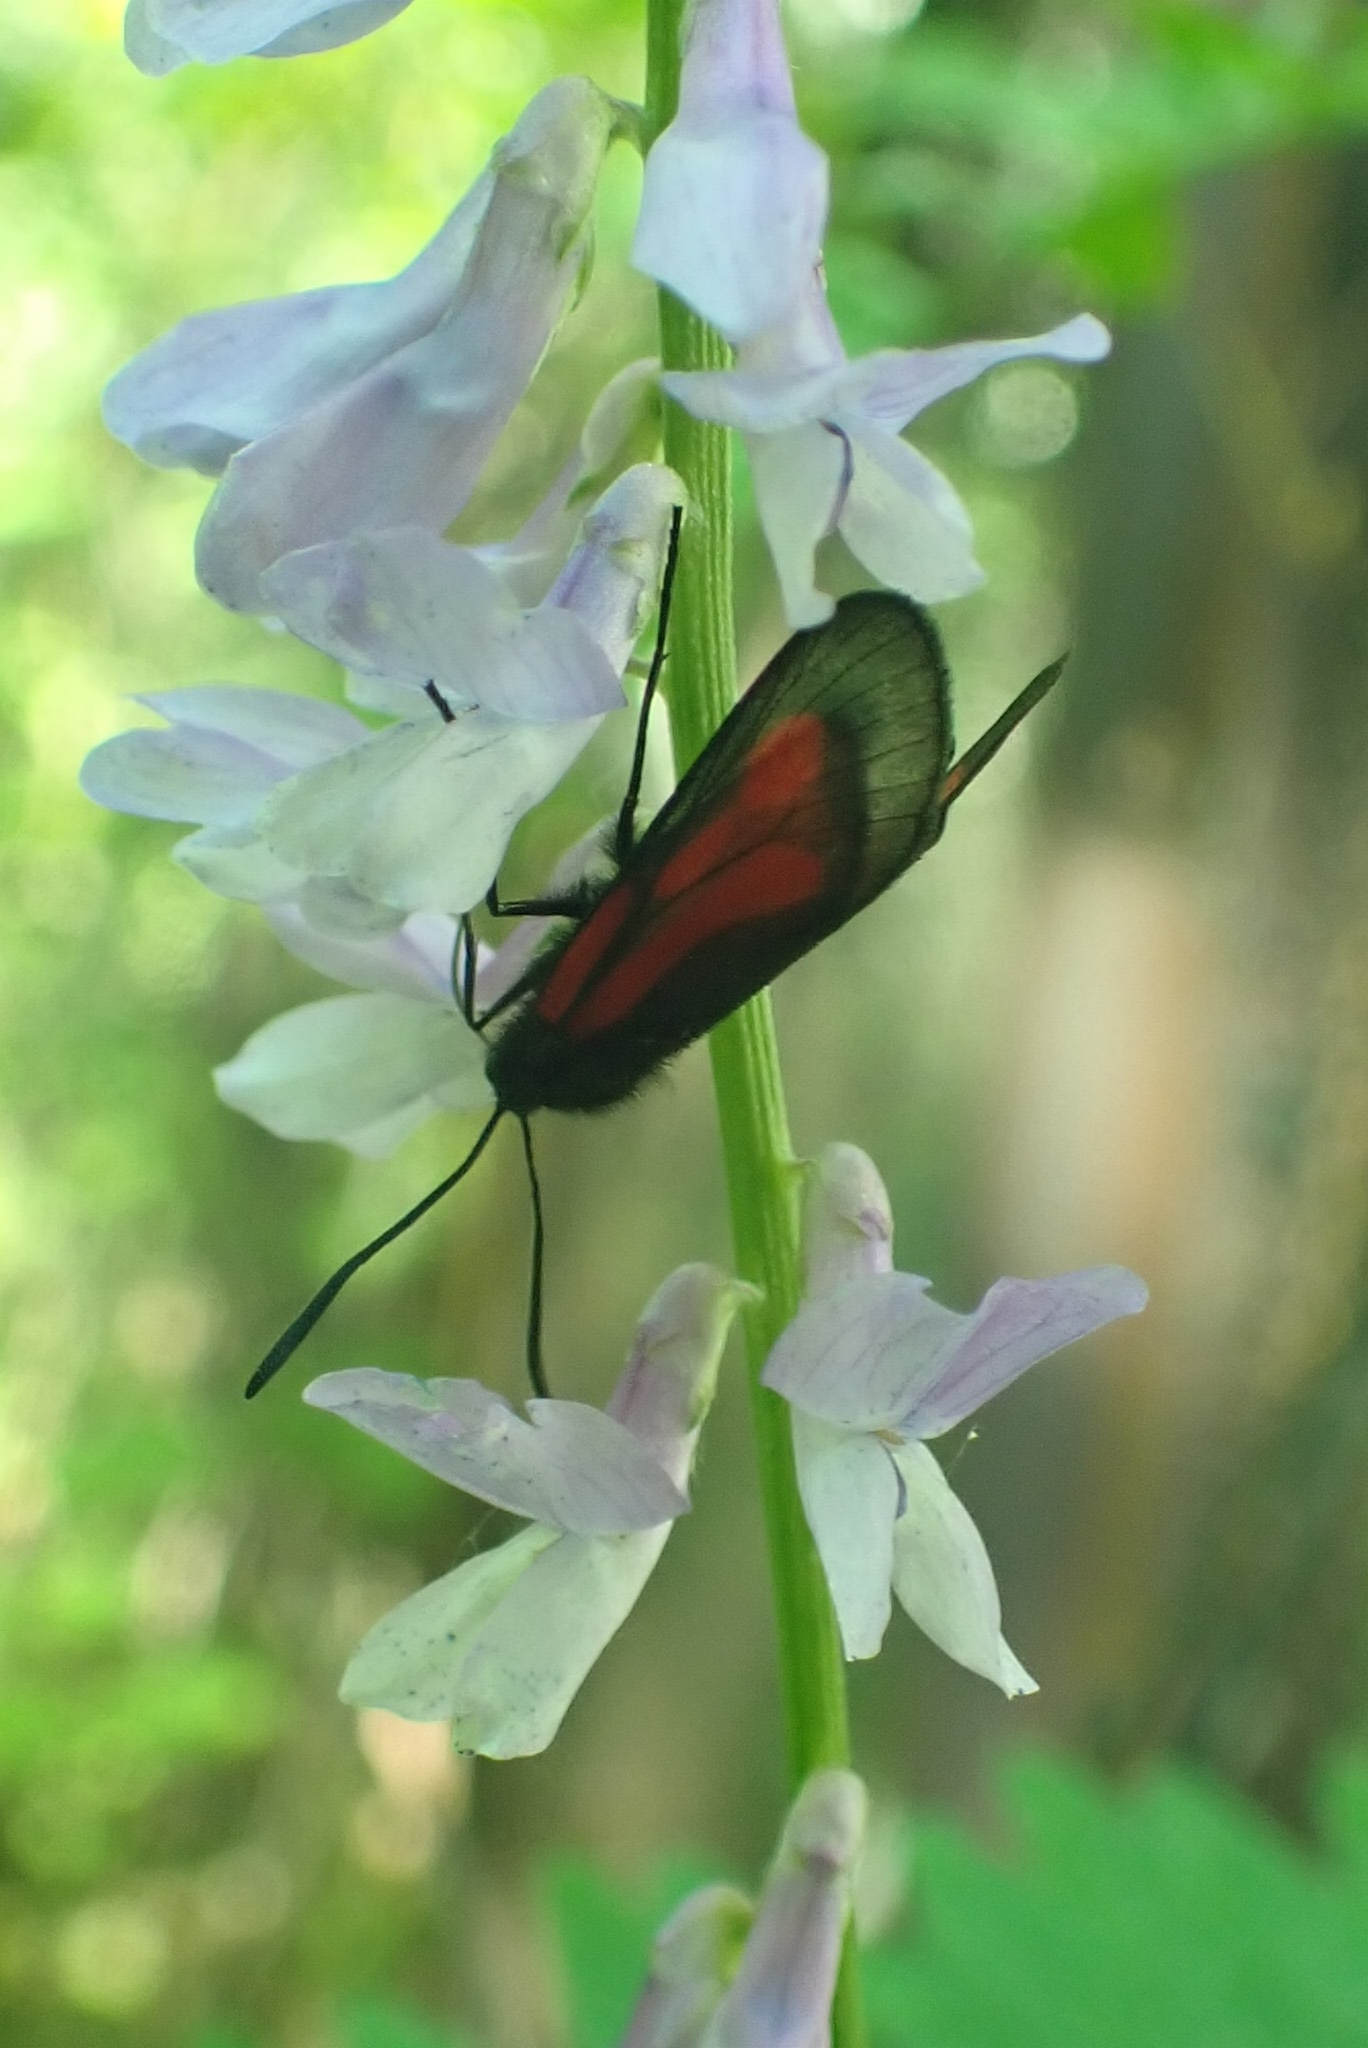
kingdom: Animalia
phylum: Arthropoda
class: Insecta
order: Lepidoptera
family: Zygaenidae
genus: Zygaena
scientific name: Zygaena osterodensis
